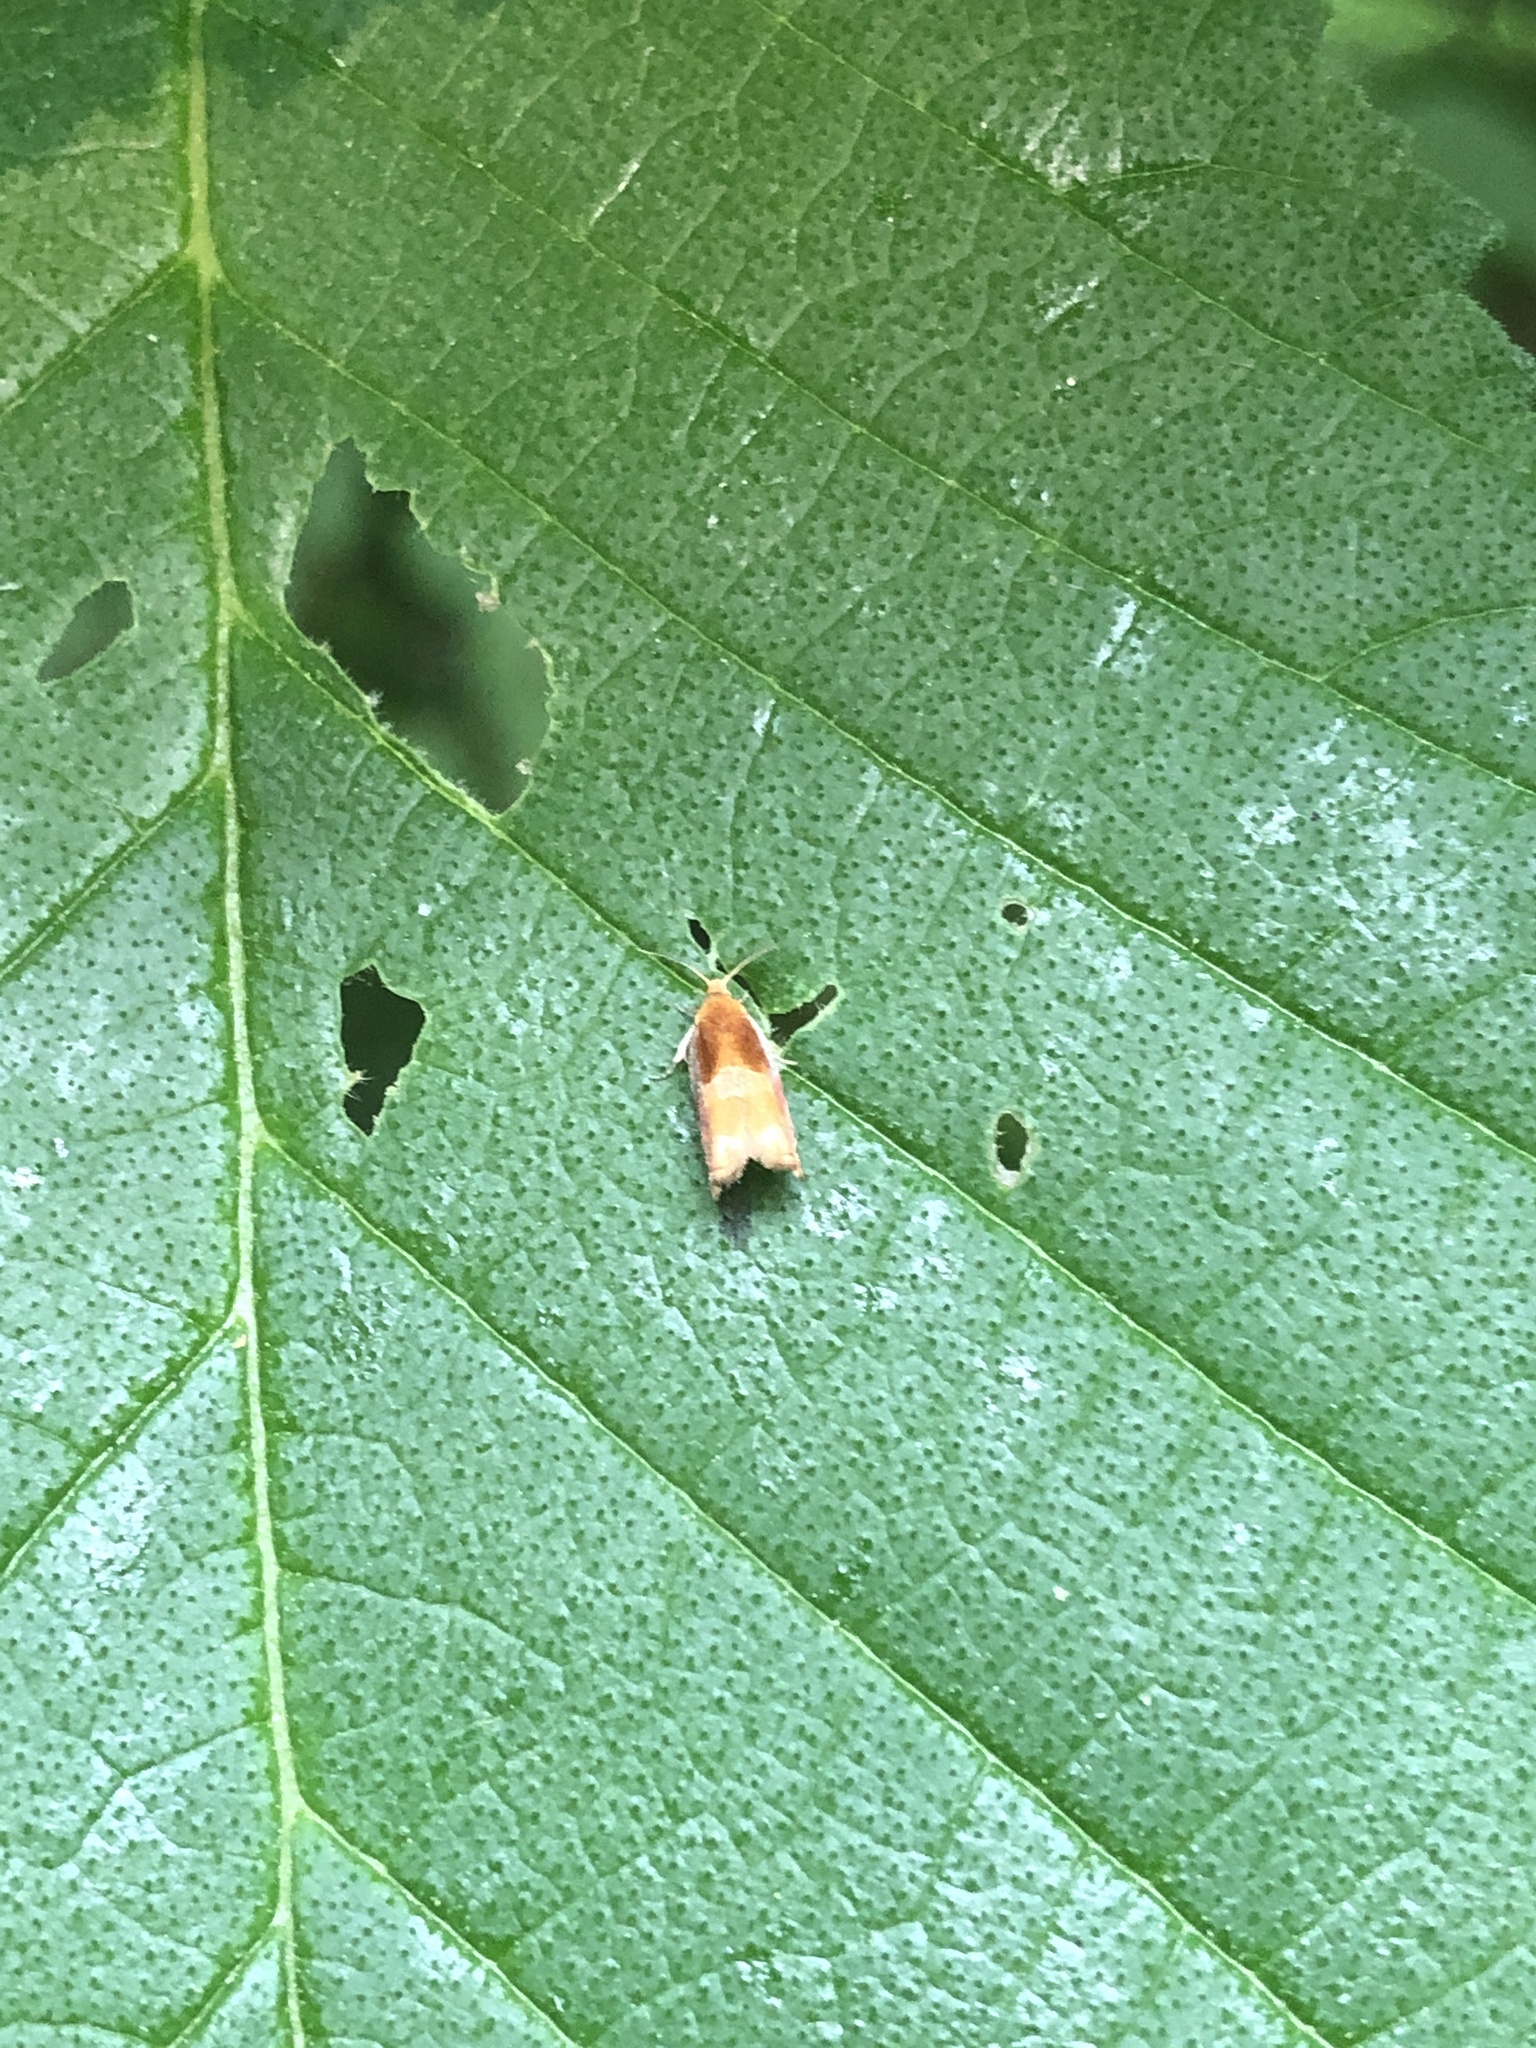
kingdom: Animalia
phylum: Arthropoda
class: Insecta
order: Lepidoptera
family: Tortricidae
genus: Ancylis
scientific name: Ancylis divisana
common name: Two-toned ancylis moth
